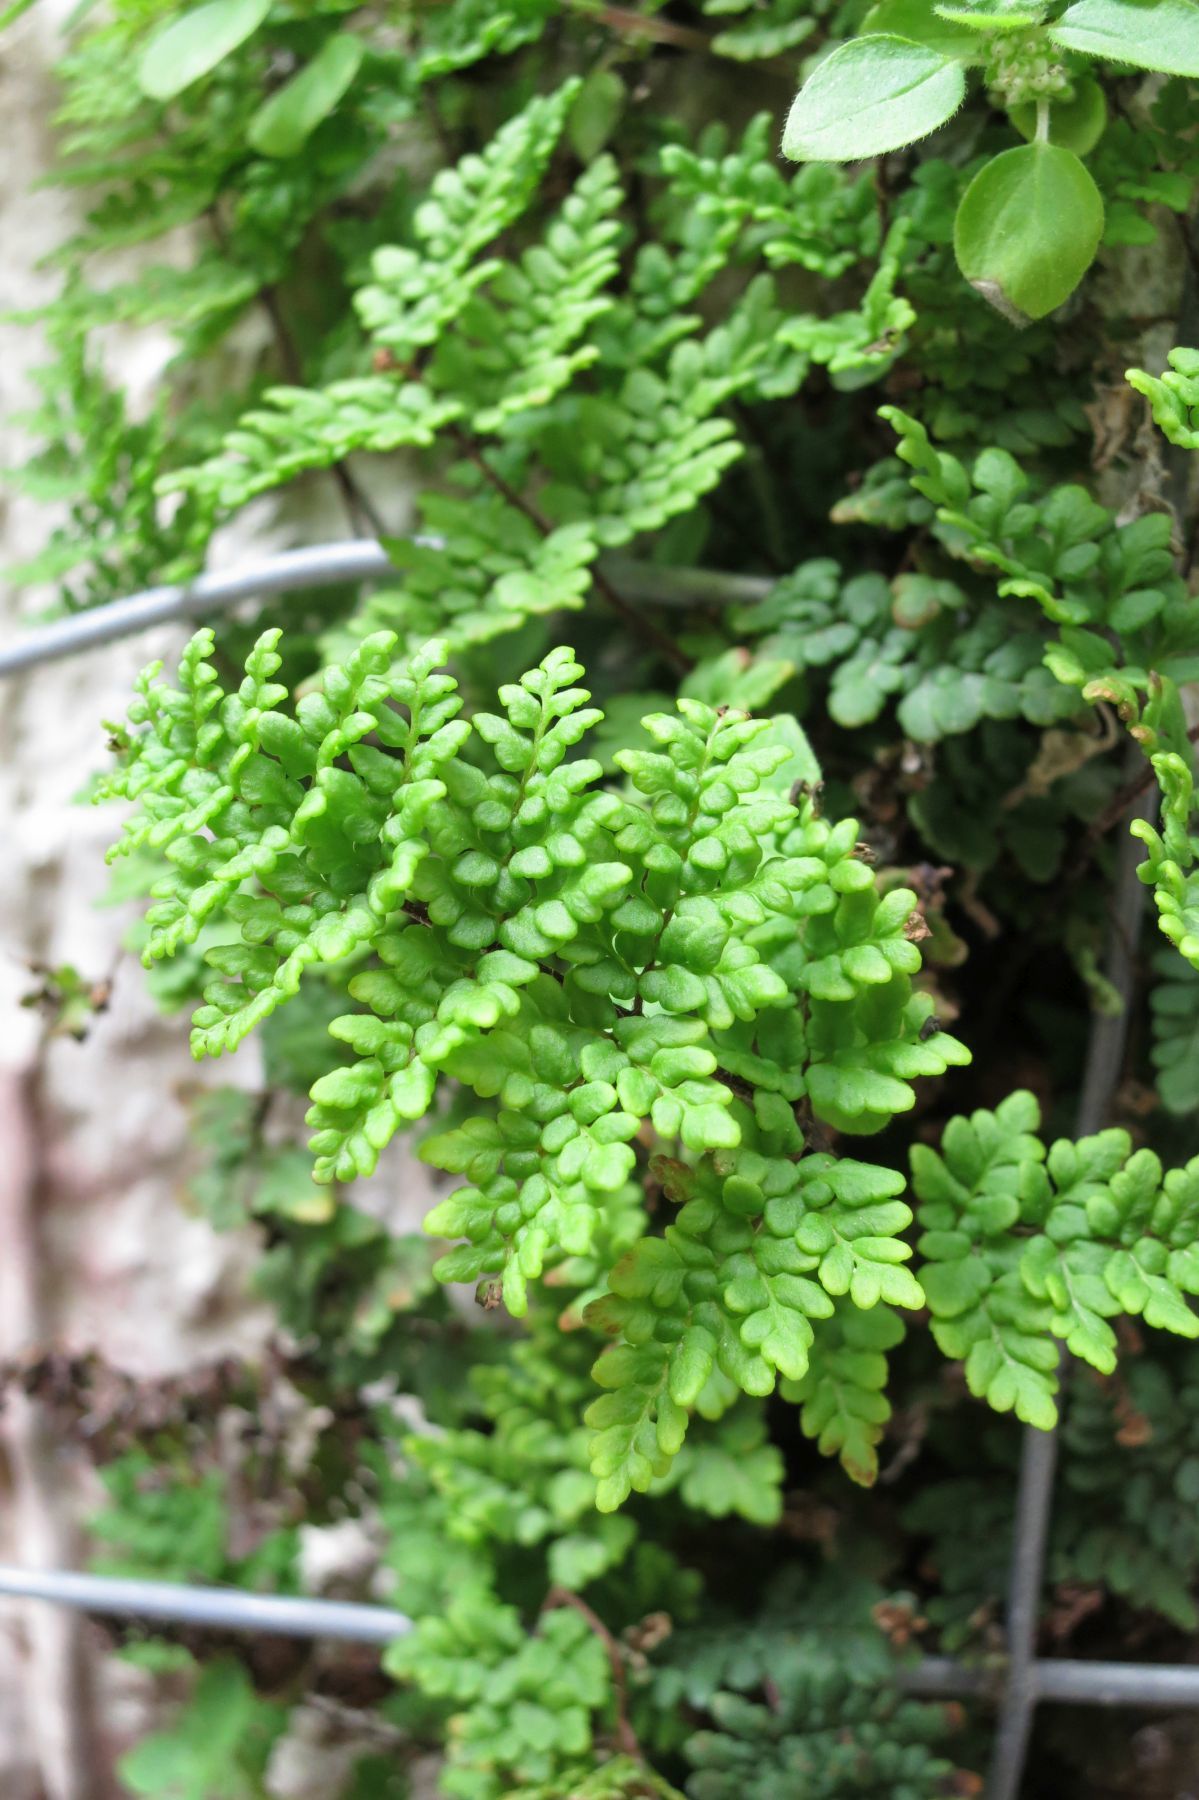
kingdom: Plantae
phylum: Tracheophyta
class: Polypodiopsida
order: Polypodiales
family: Pteridaceae
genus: Oeosporangium
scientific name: Oeosporangium pteridioides
